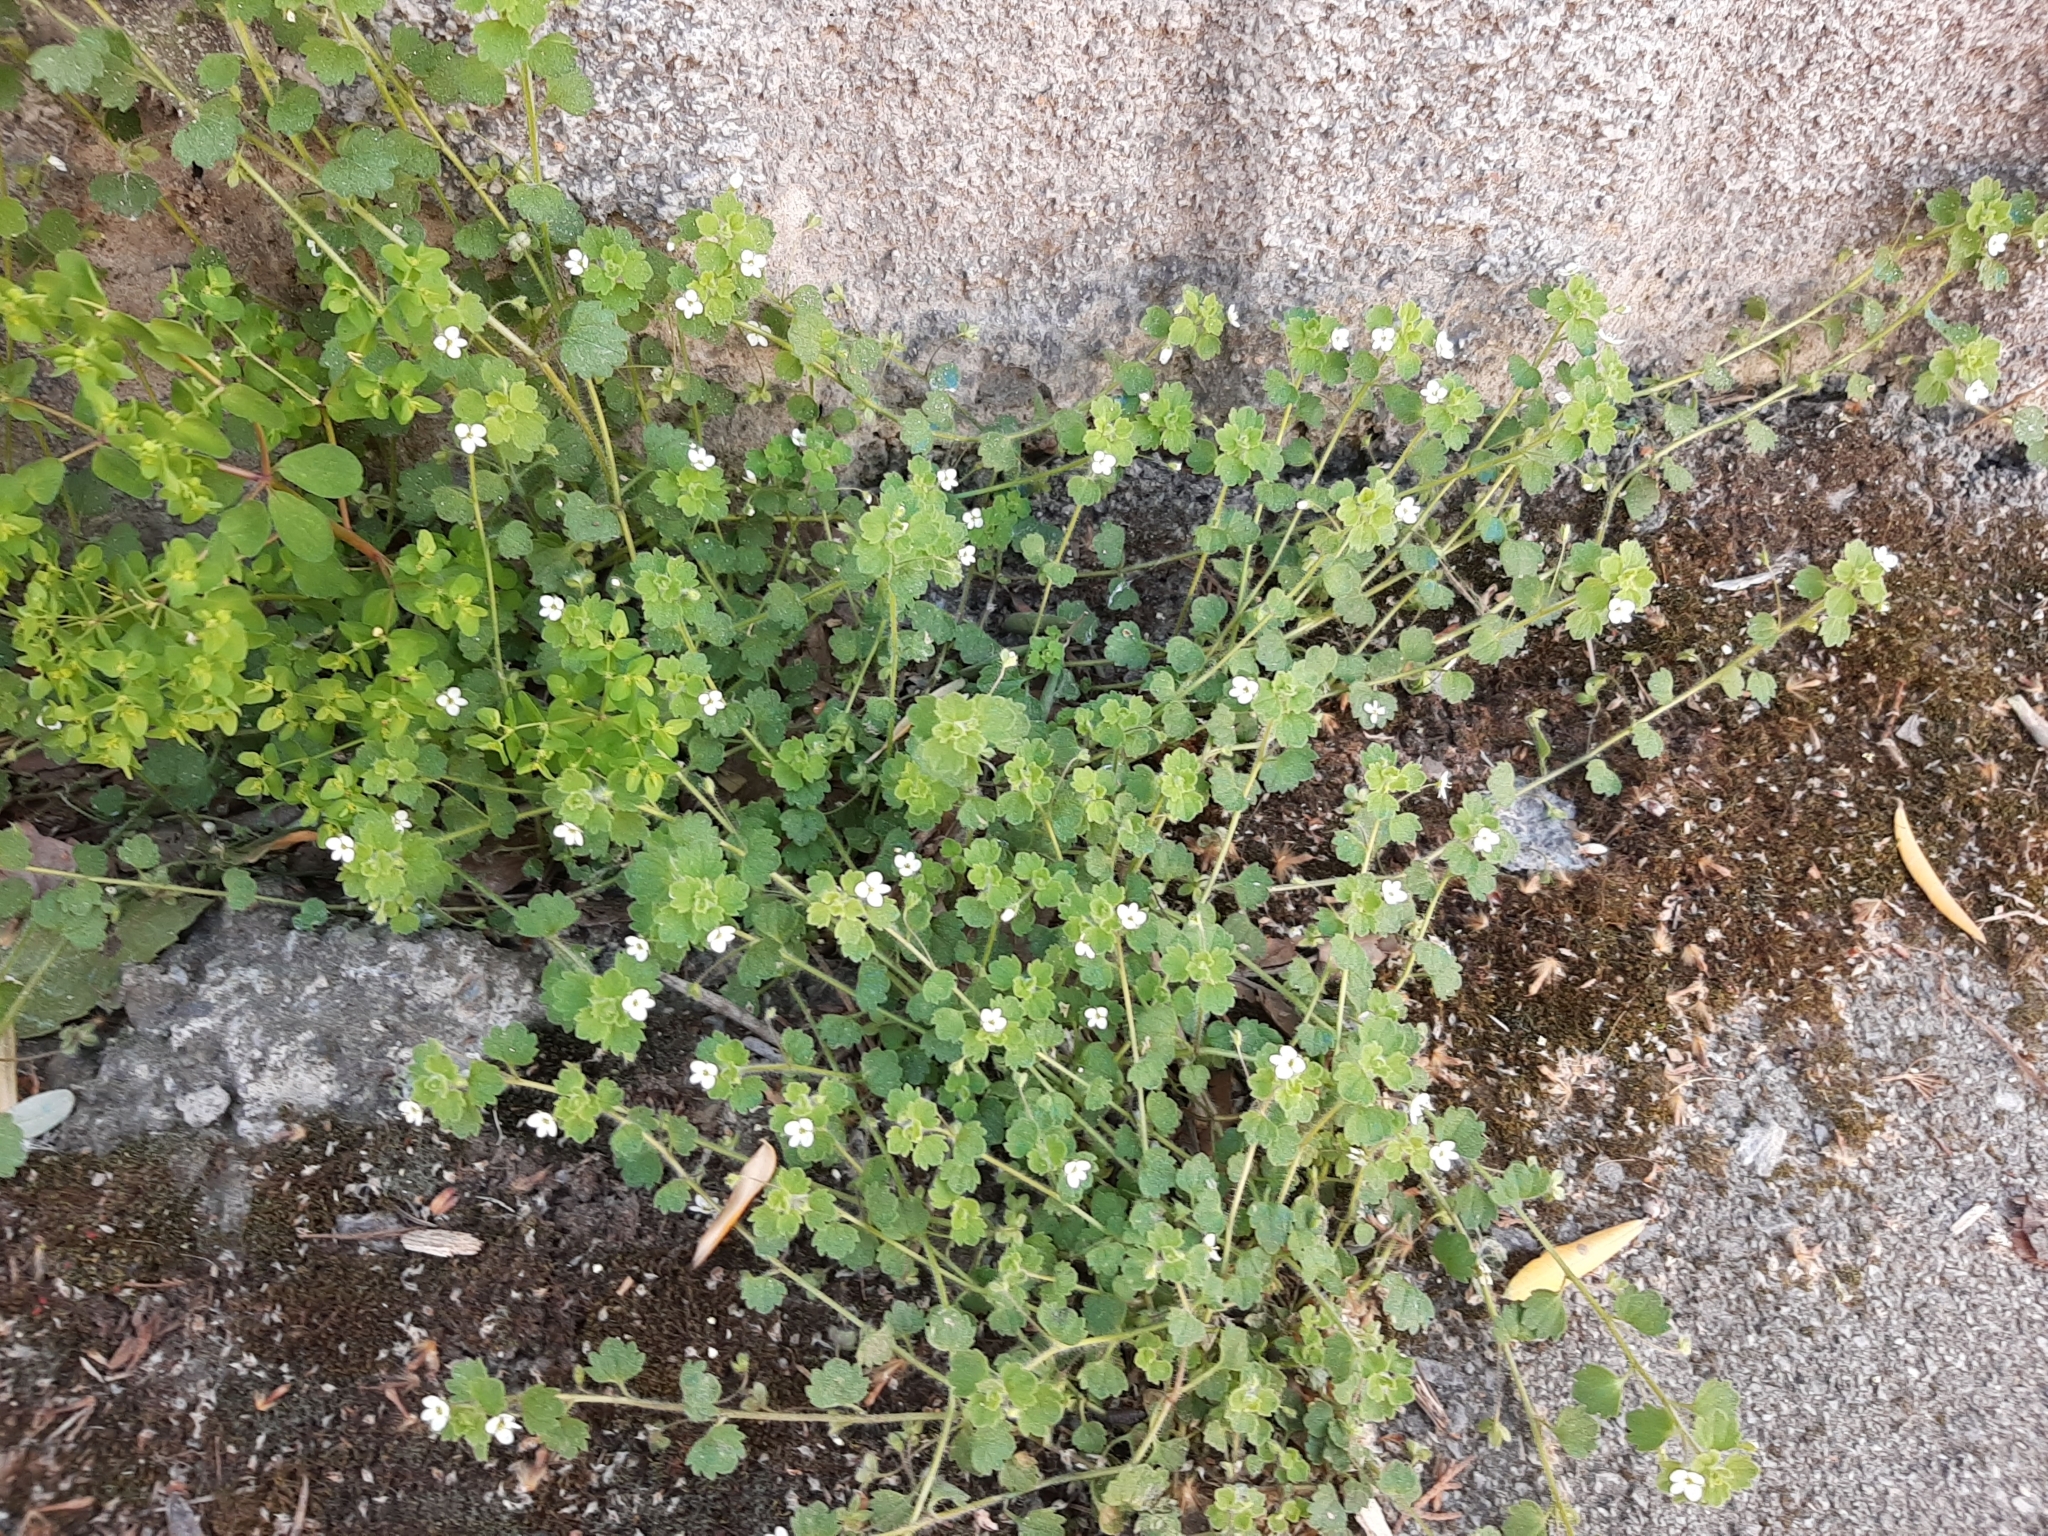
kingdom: Plantae
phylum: Tracheophyta
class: Magnoliopsida
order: Lamiales
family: Plantaginaceae
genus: Veronica
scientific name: Veronica cymbalaria
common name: Pale speedwell
